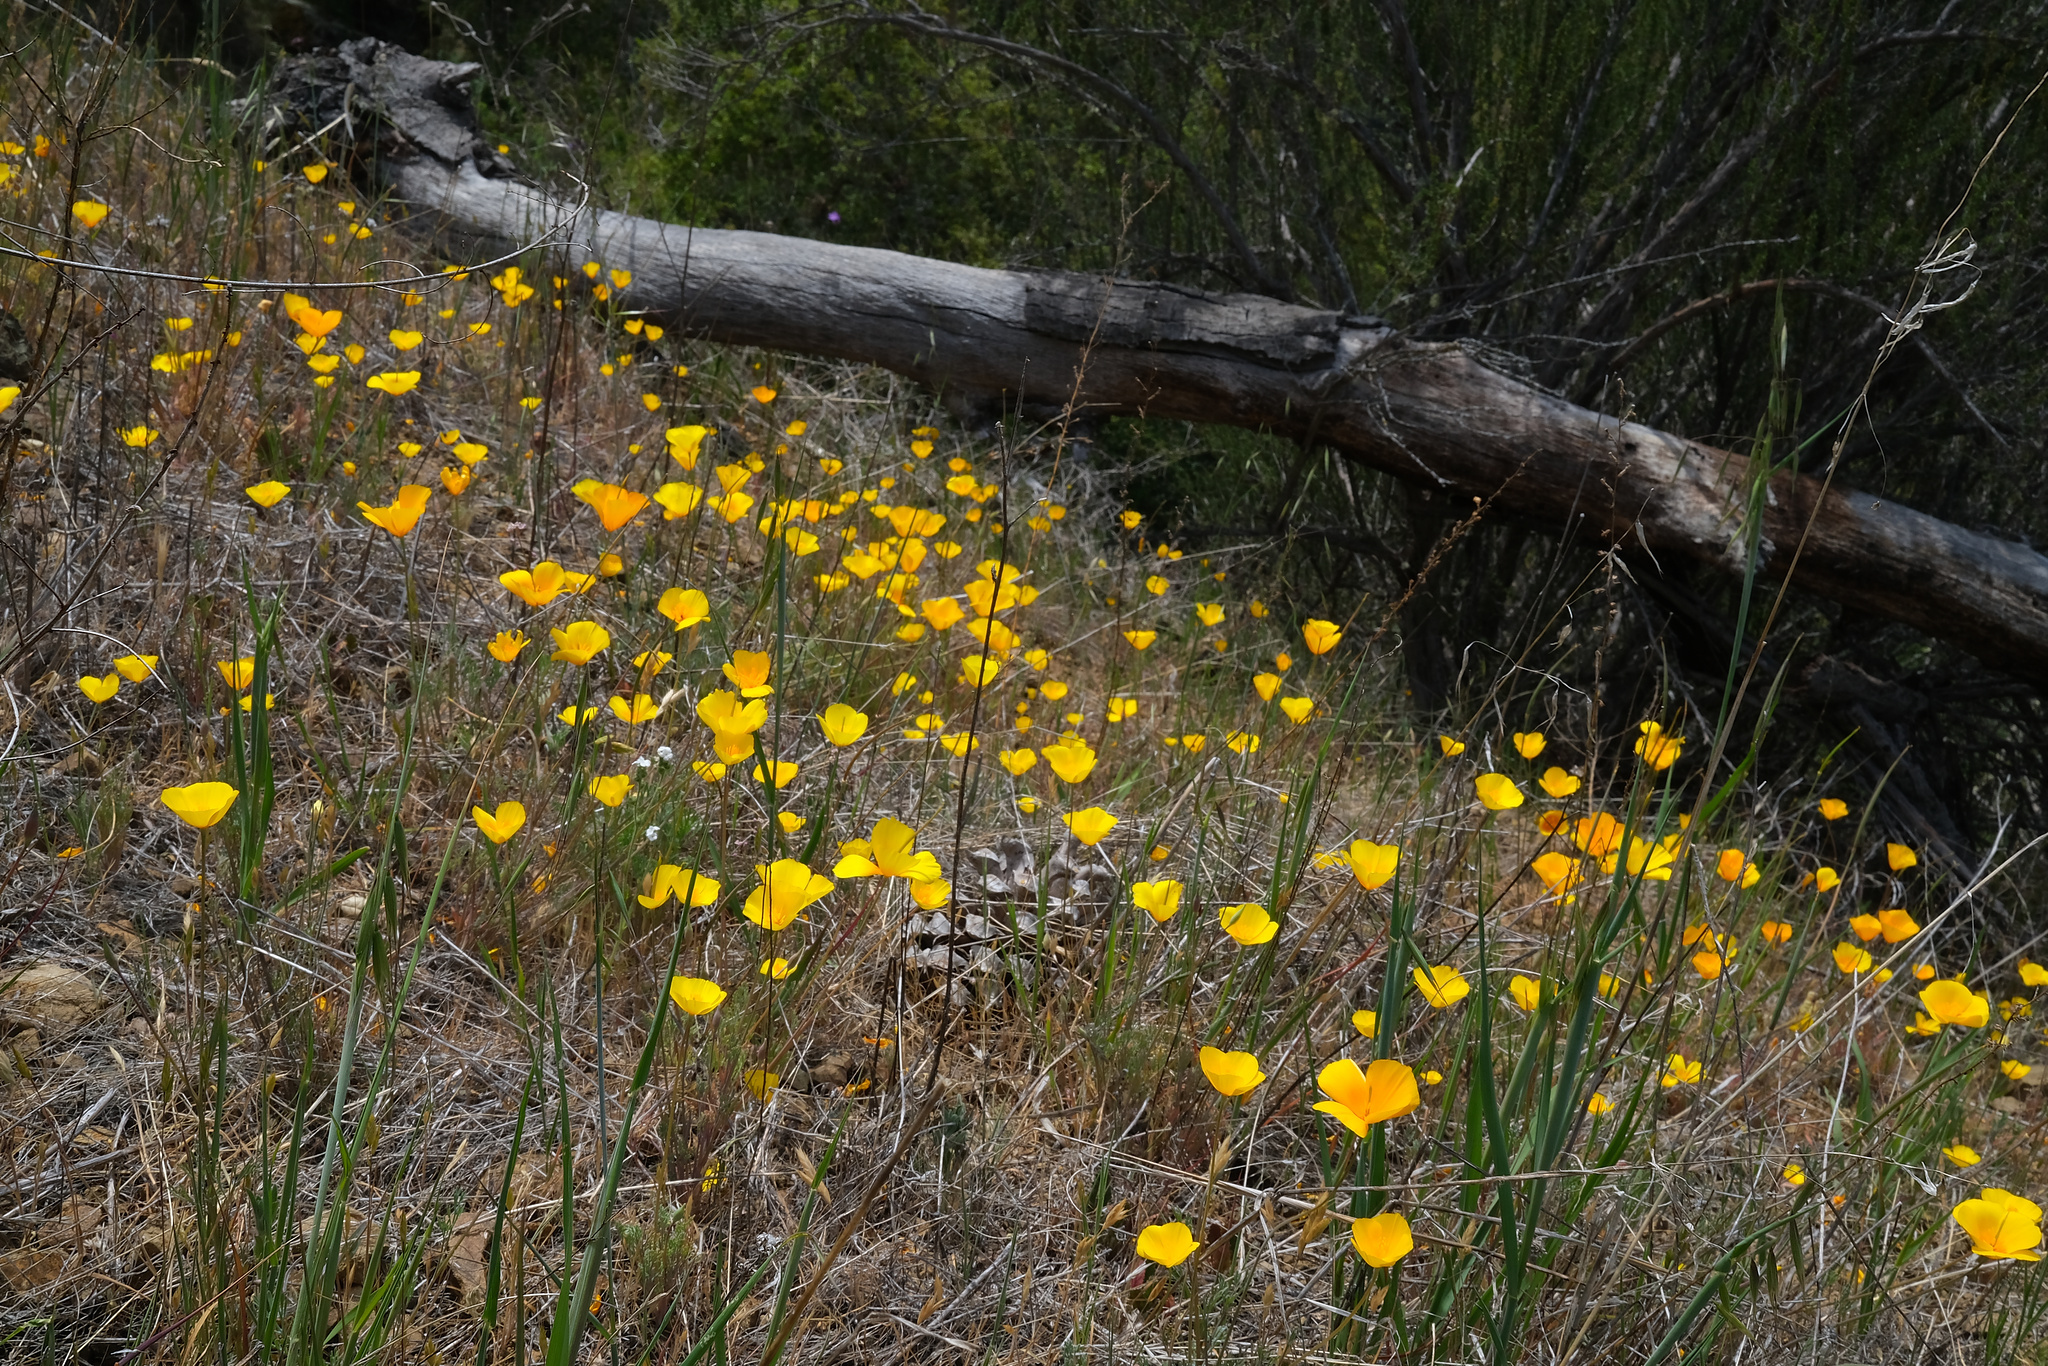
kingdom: Plantae
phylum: Tracheophyta
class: Magnoliopsida
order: Ranunculales
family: Papaveraceae
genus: Eschscholzia
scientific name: Eschscholzia caespitosa
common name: Tufted california-poppy
